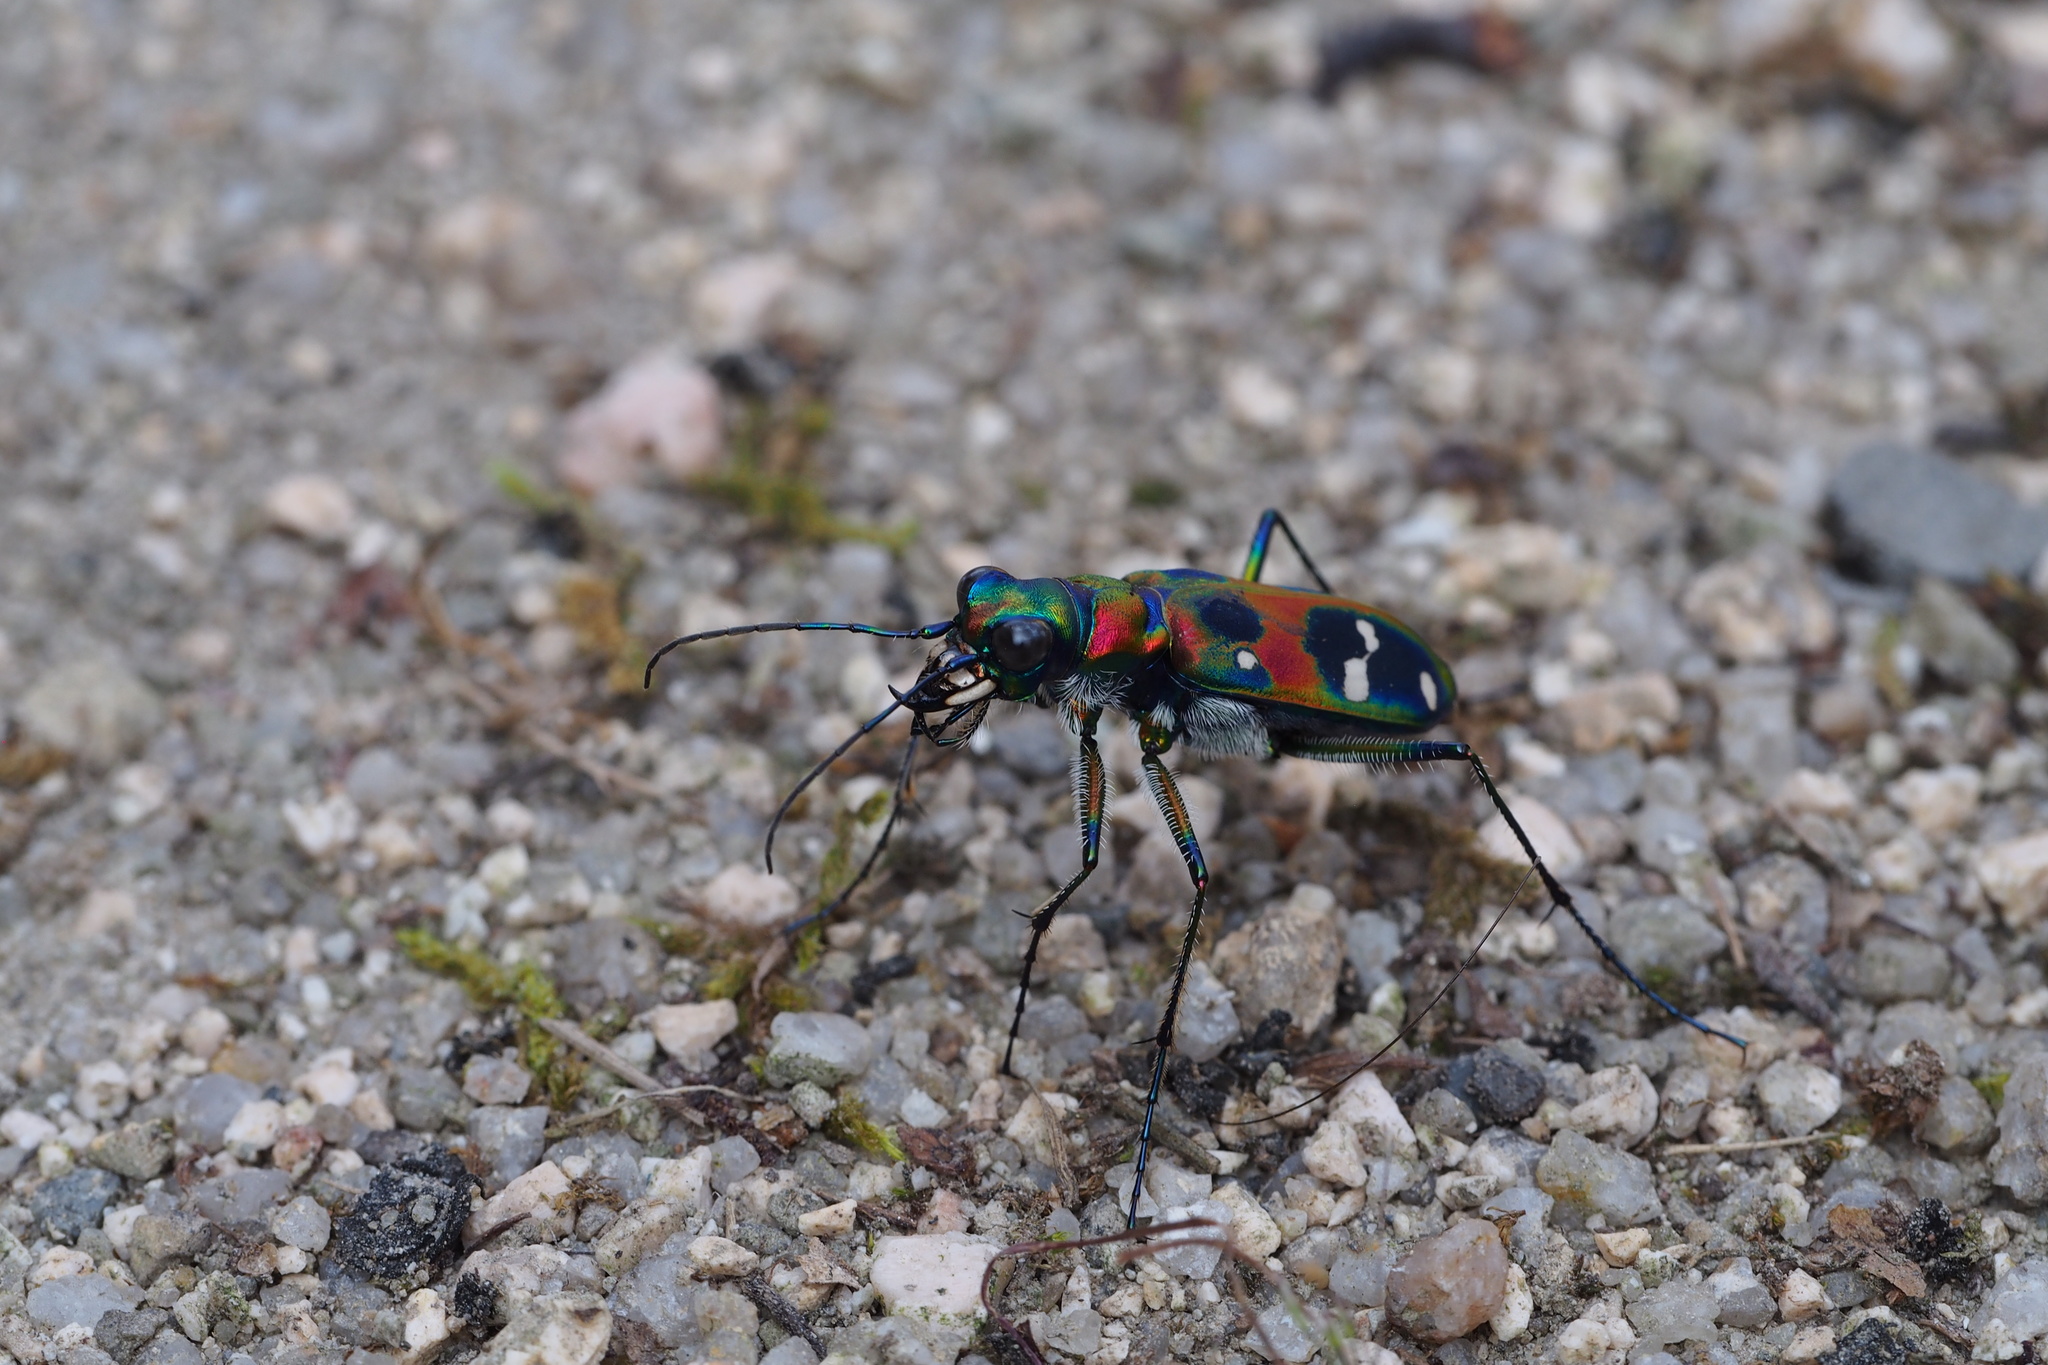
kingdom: Animalia
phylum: Arthropoda
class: Insecta
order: Coleoptera
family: Carabidae
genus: Cicindela
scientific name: Cicindela chinensis
